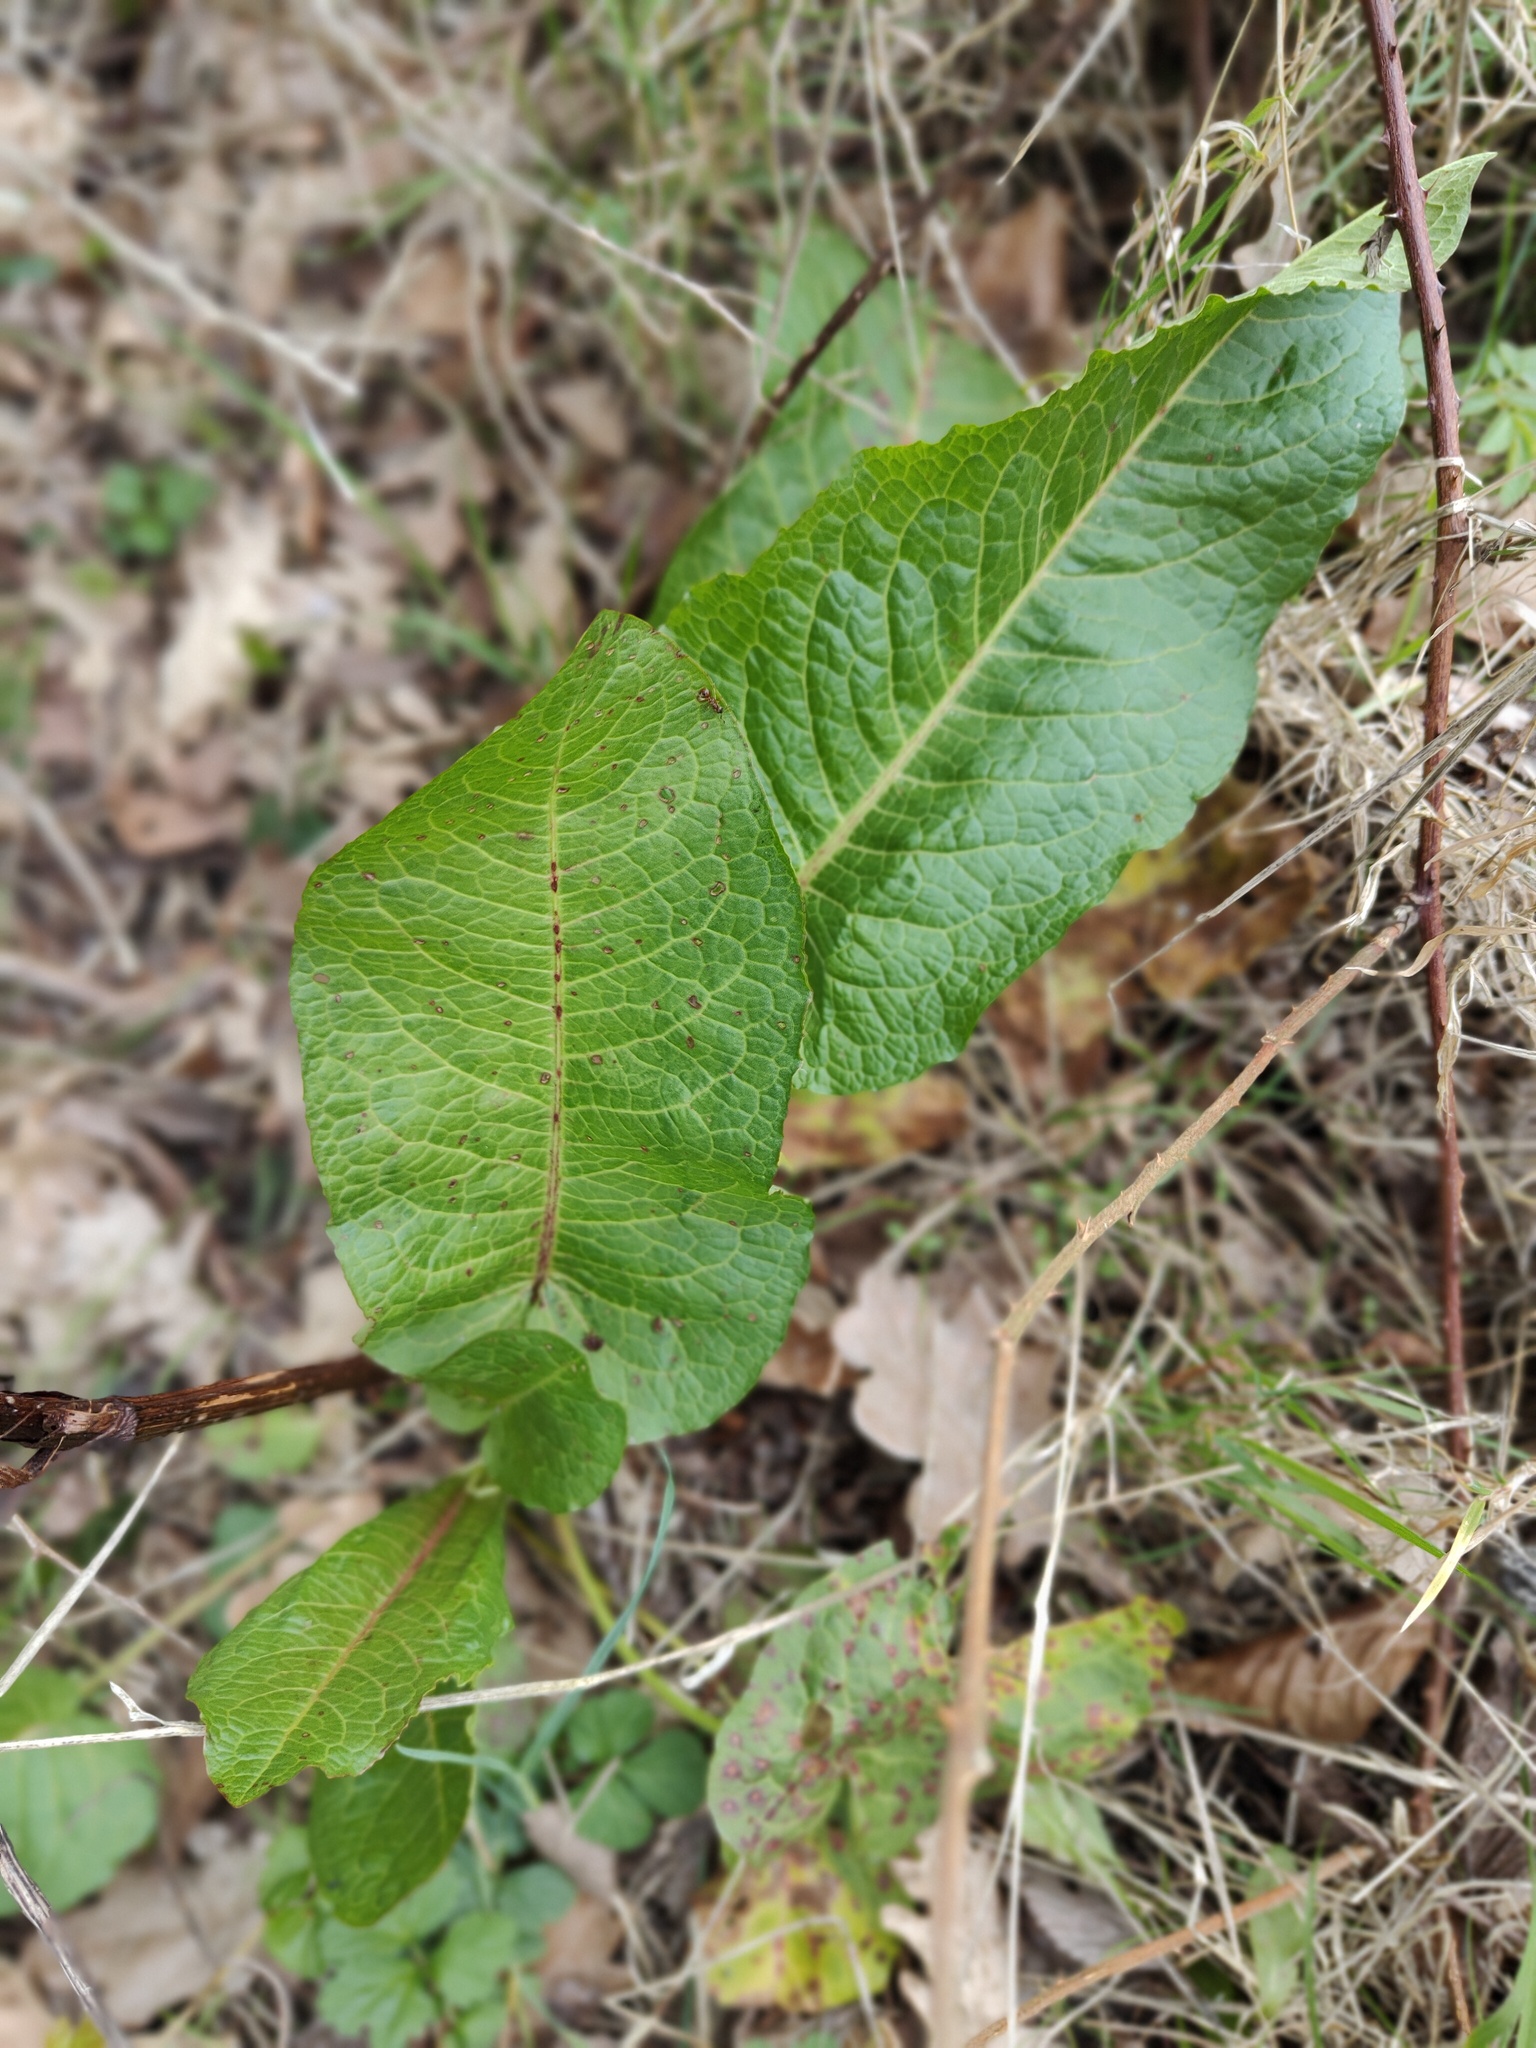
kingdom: Plantae
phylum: Tracheophyta
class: Magnoliopsida
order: Caryophyllales
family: Polygonaceae
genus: Rumex
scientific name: Rumex obtusifolius
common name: Bitter dock
